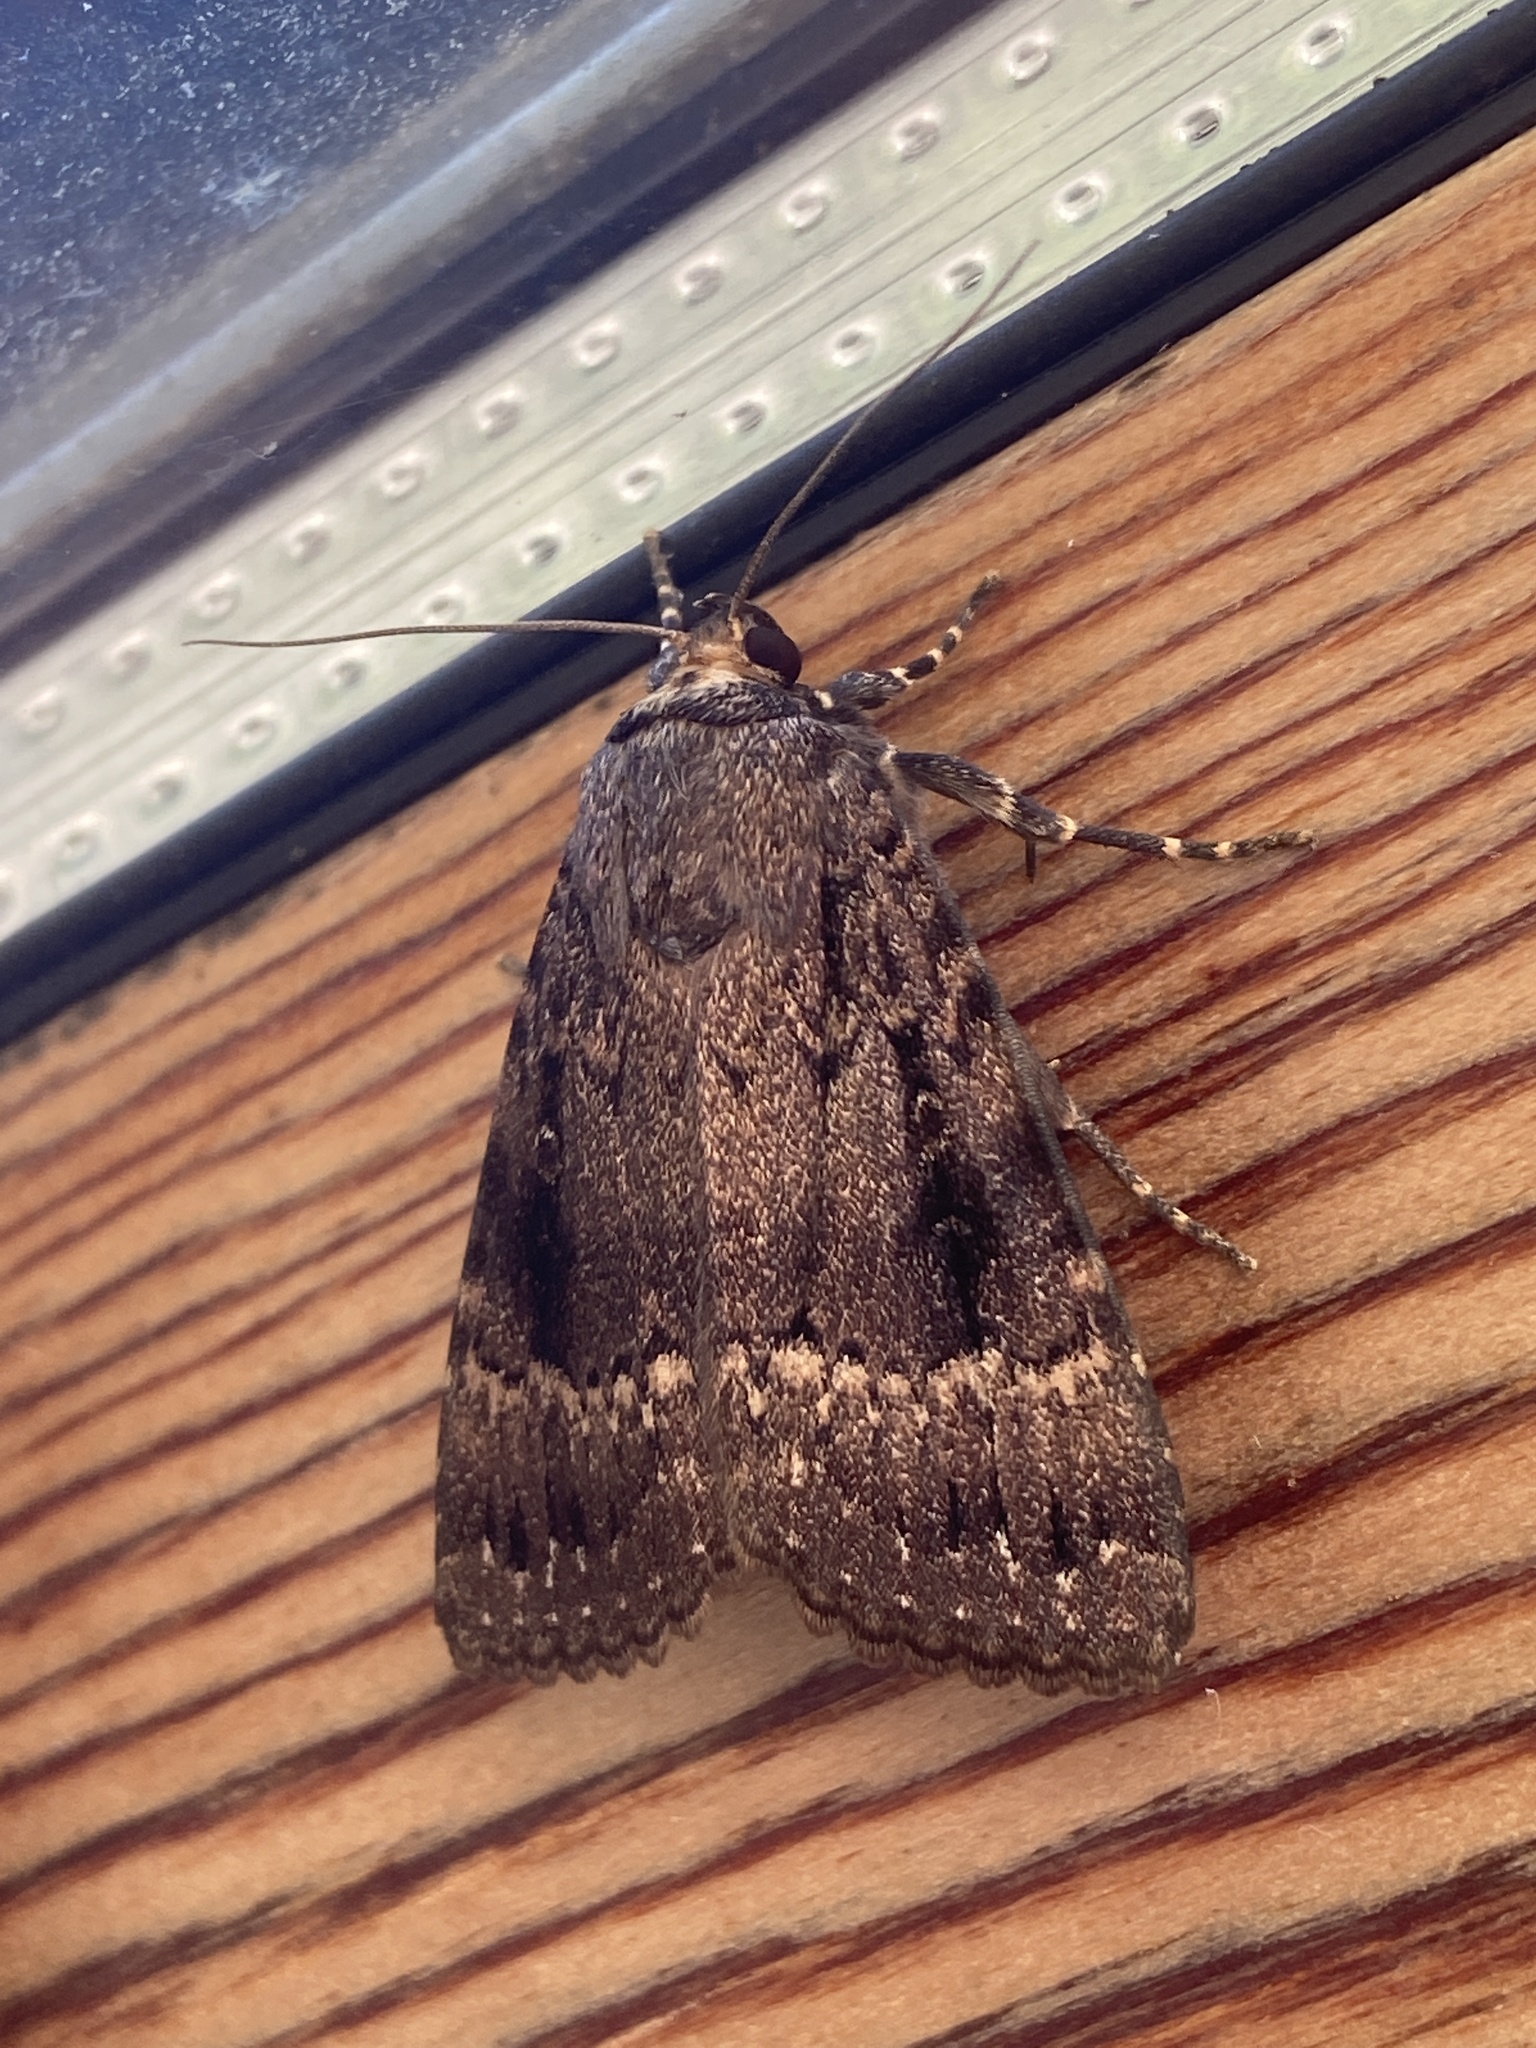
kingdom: Animalia
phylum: Arthropoda
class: Insecta
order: Lepidoptera
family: Noctuidae
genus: Amphipyra
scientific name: Amphipyra pyramidea
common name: Copper underwing
